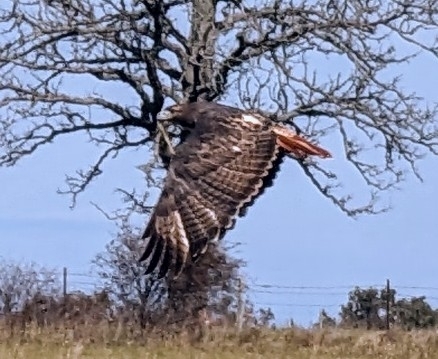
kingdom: Animalia
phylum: Chordata
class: Aves
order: Accipitriformes
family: Accipitridae
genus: Buteo
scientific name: Buteo jamaicensis
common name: Red-tailed hawk
